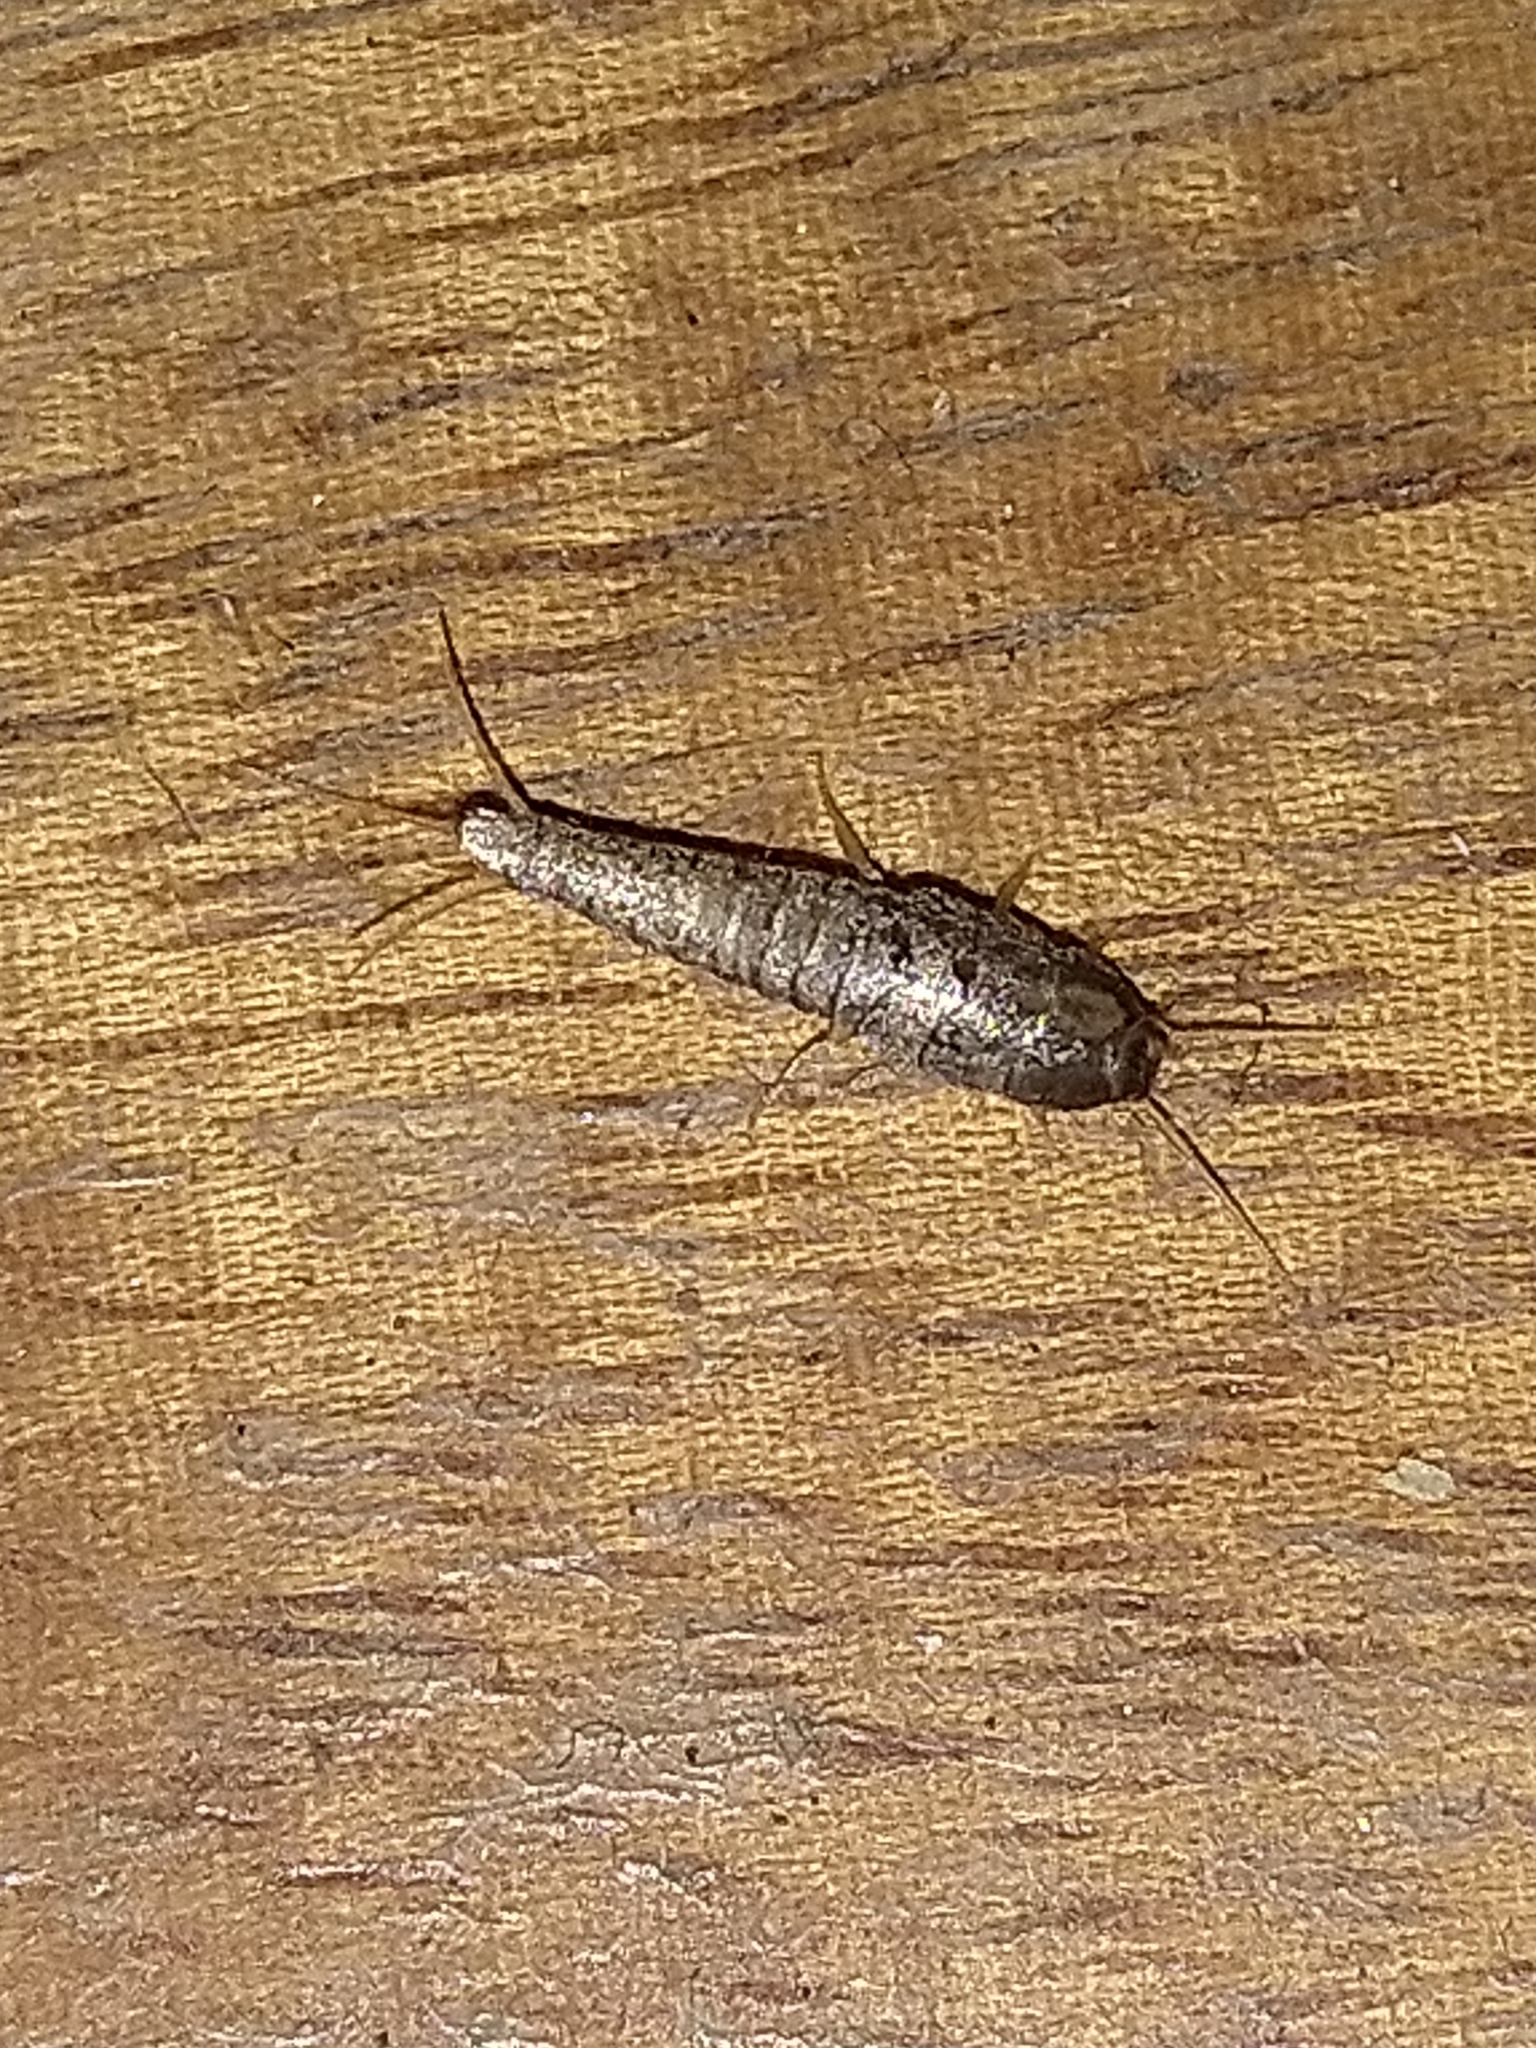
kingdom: Animalia
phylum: Arthropoda
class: Insecta
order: Zygentoma
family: Lepismatidae
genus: Lepisma
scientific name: Lepisma saccharinum
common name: Silverfish
